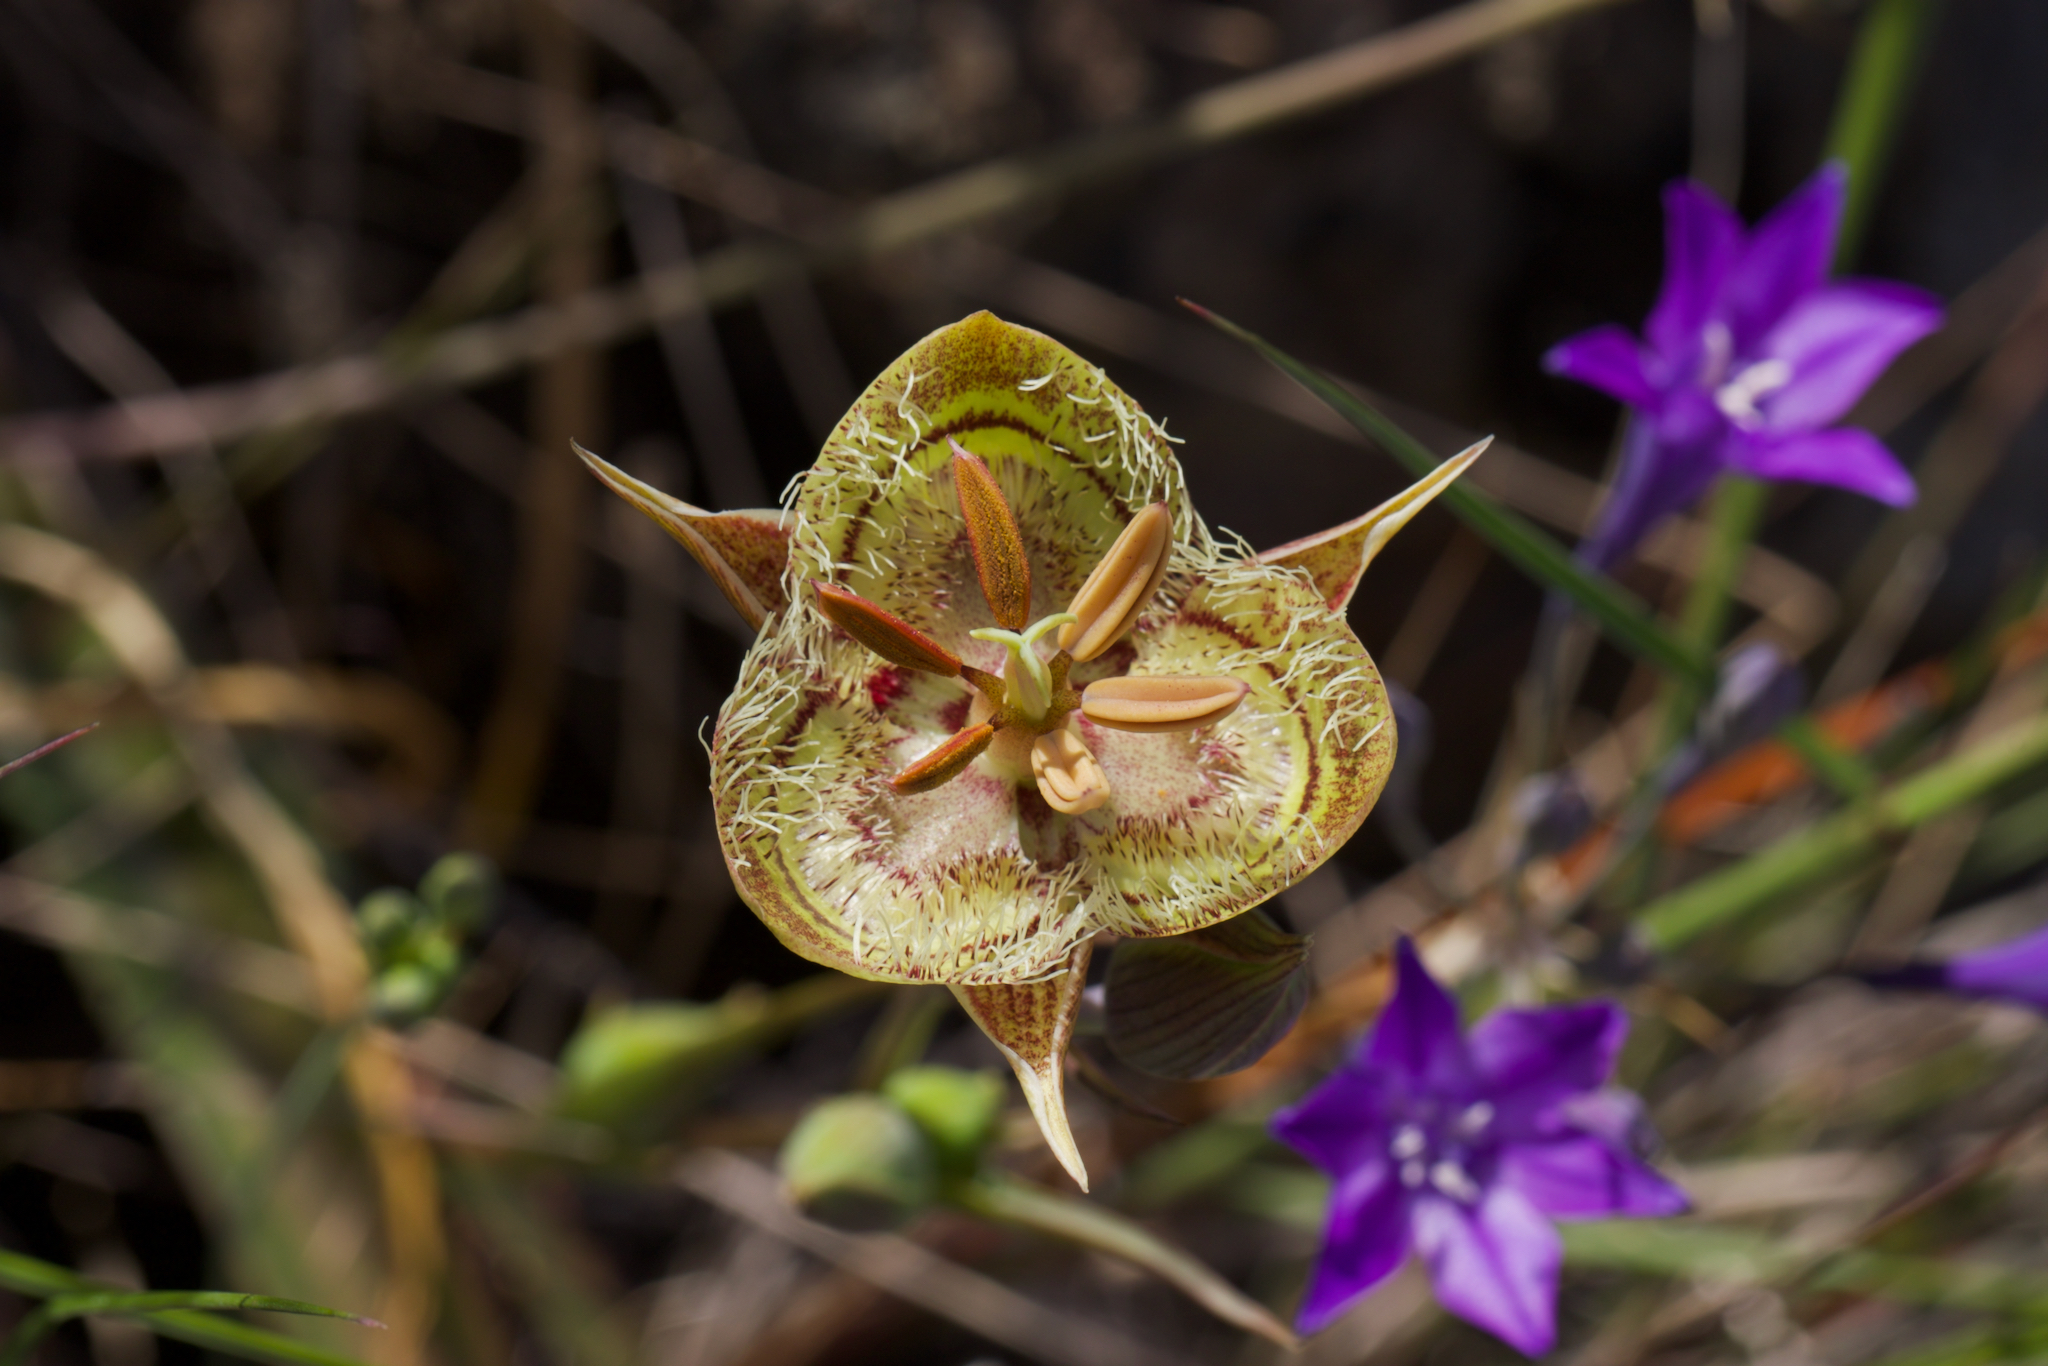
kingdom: Plantae
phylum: Tracheophyta
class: Liliopsida
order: Liliales
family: Liliaceae
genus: Calochortus
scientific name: Calochortus tiburonensis
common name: Tiburon mariposa-lily
